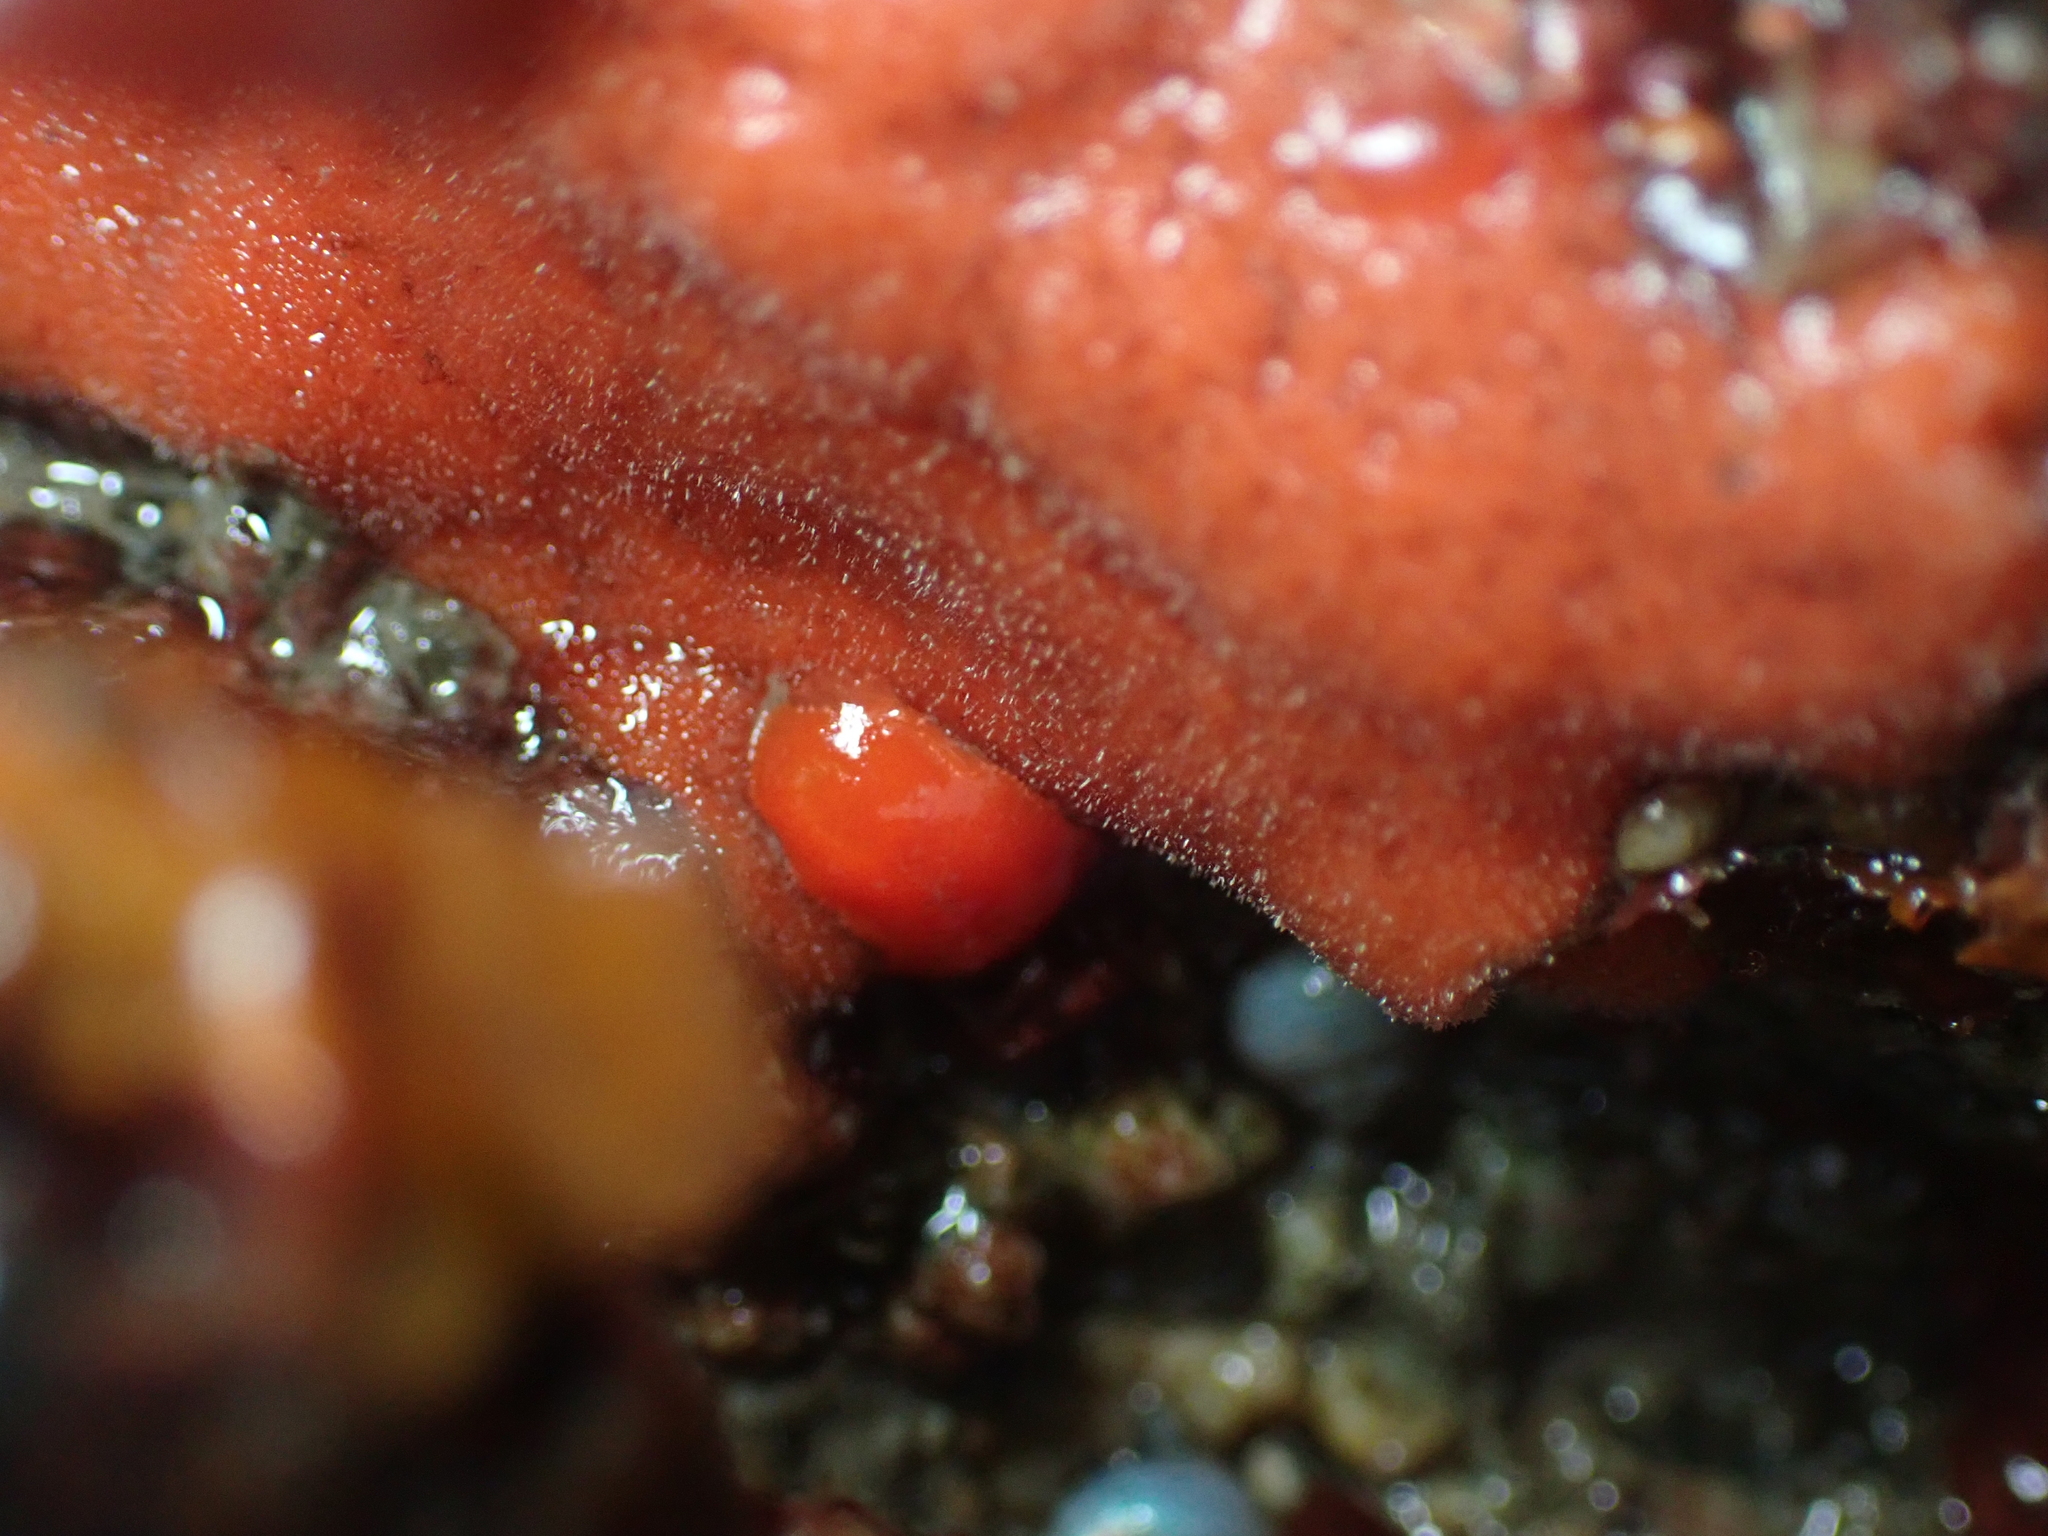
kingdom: Animalia
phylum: Mollusca
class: Gastropoda
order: Nudibranchia
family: Discodorididae
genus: Rostanga
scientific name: Rostanga pulchra
